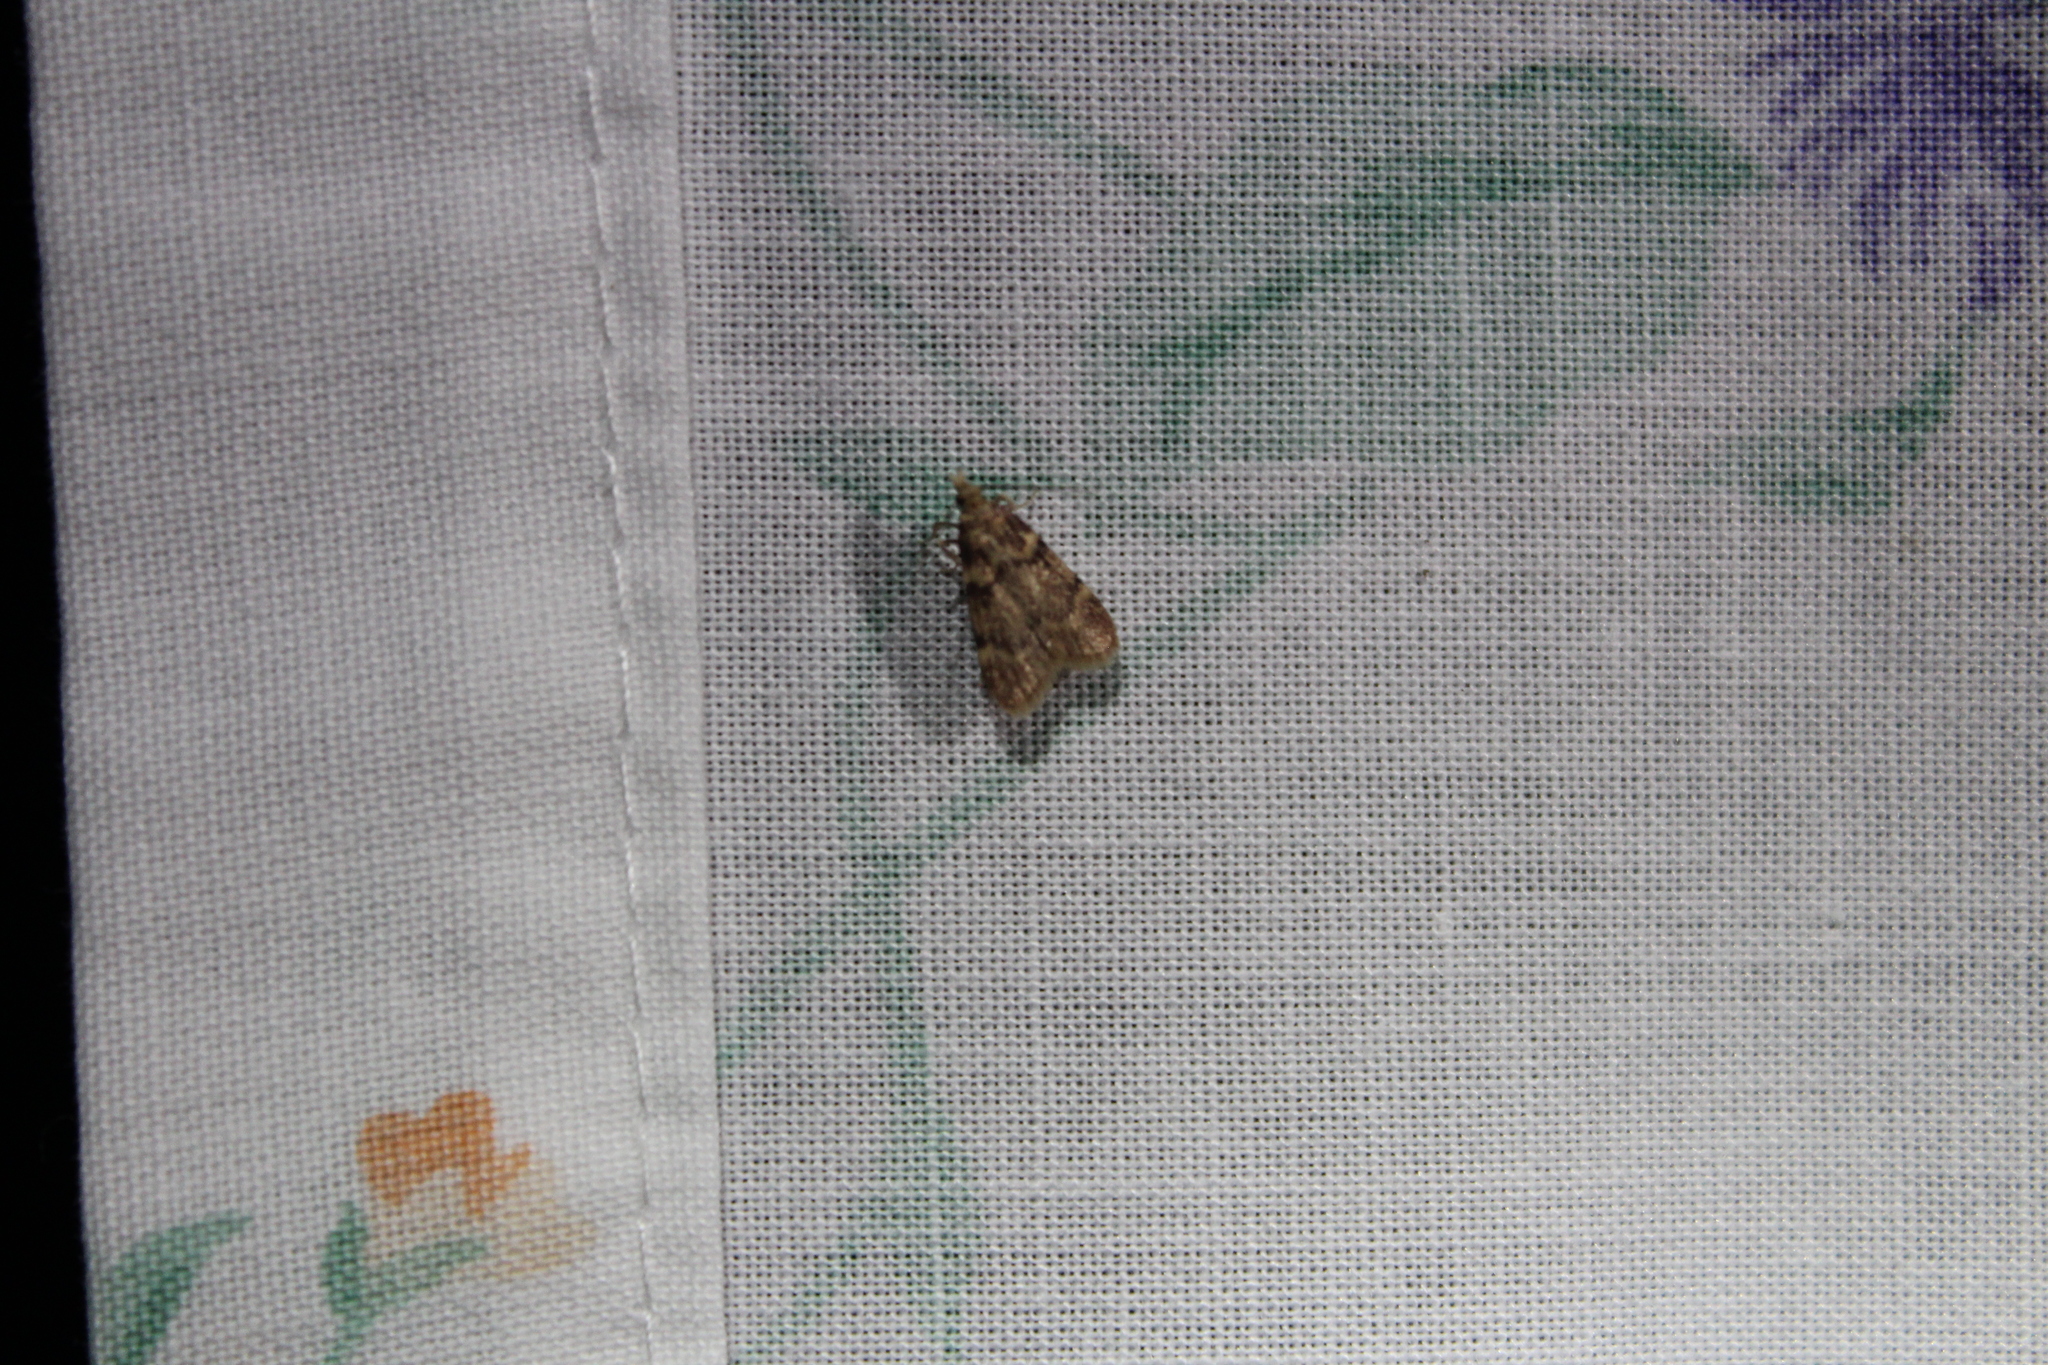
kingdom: Animalia
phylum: Arthropoda
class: Insecta
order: Lepidoptera
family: Pyralidae
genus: Aglossa
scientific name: Aglossa disciferalis
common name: Pink-masked pyralid moth
